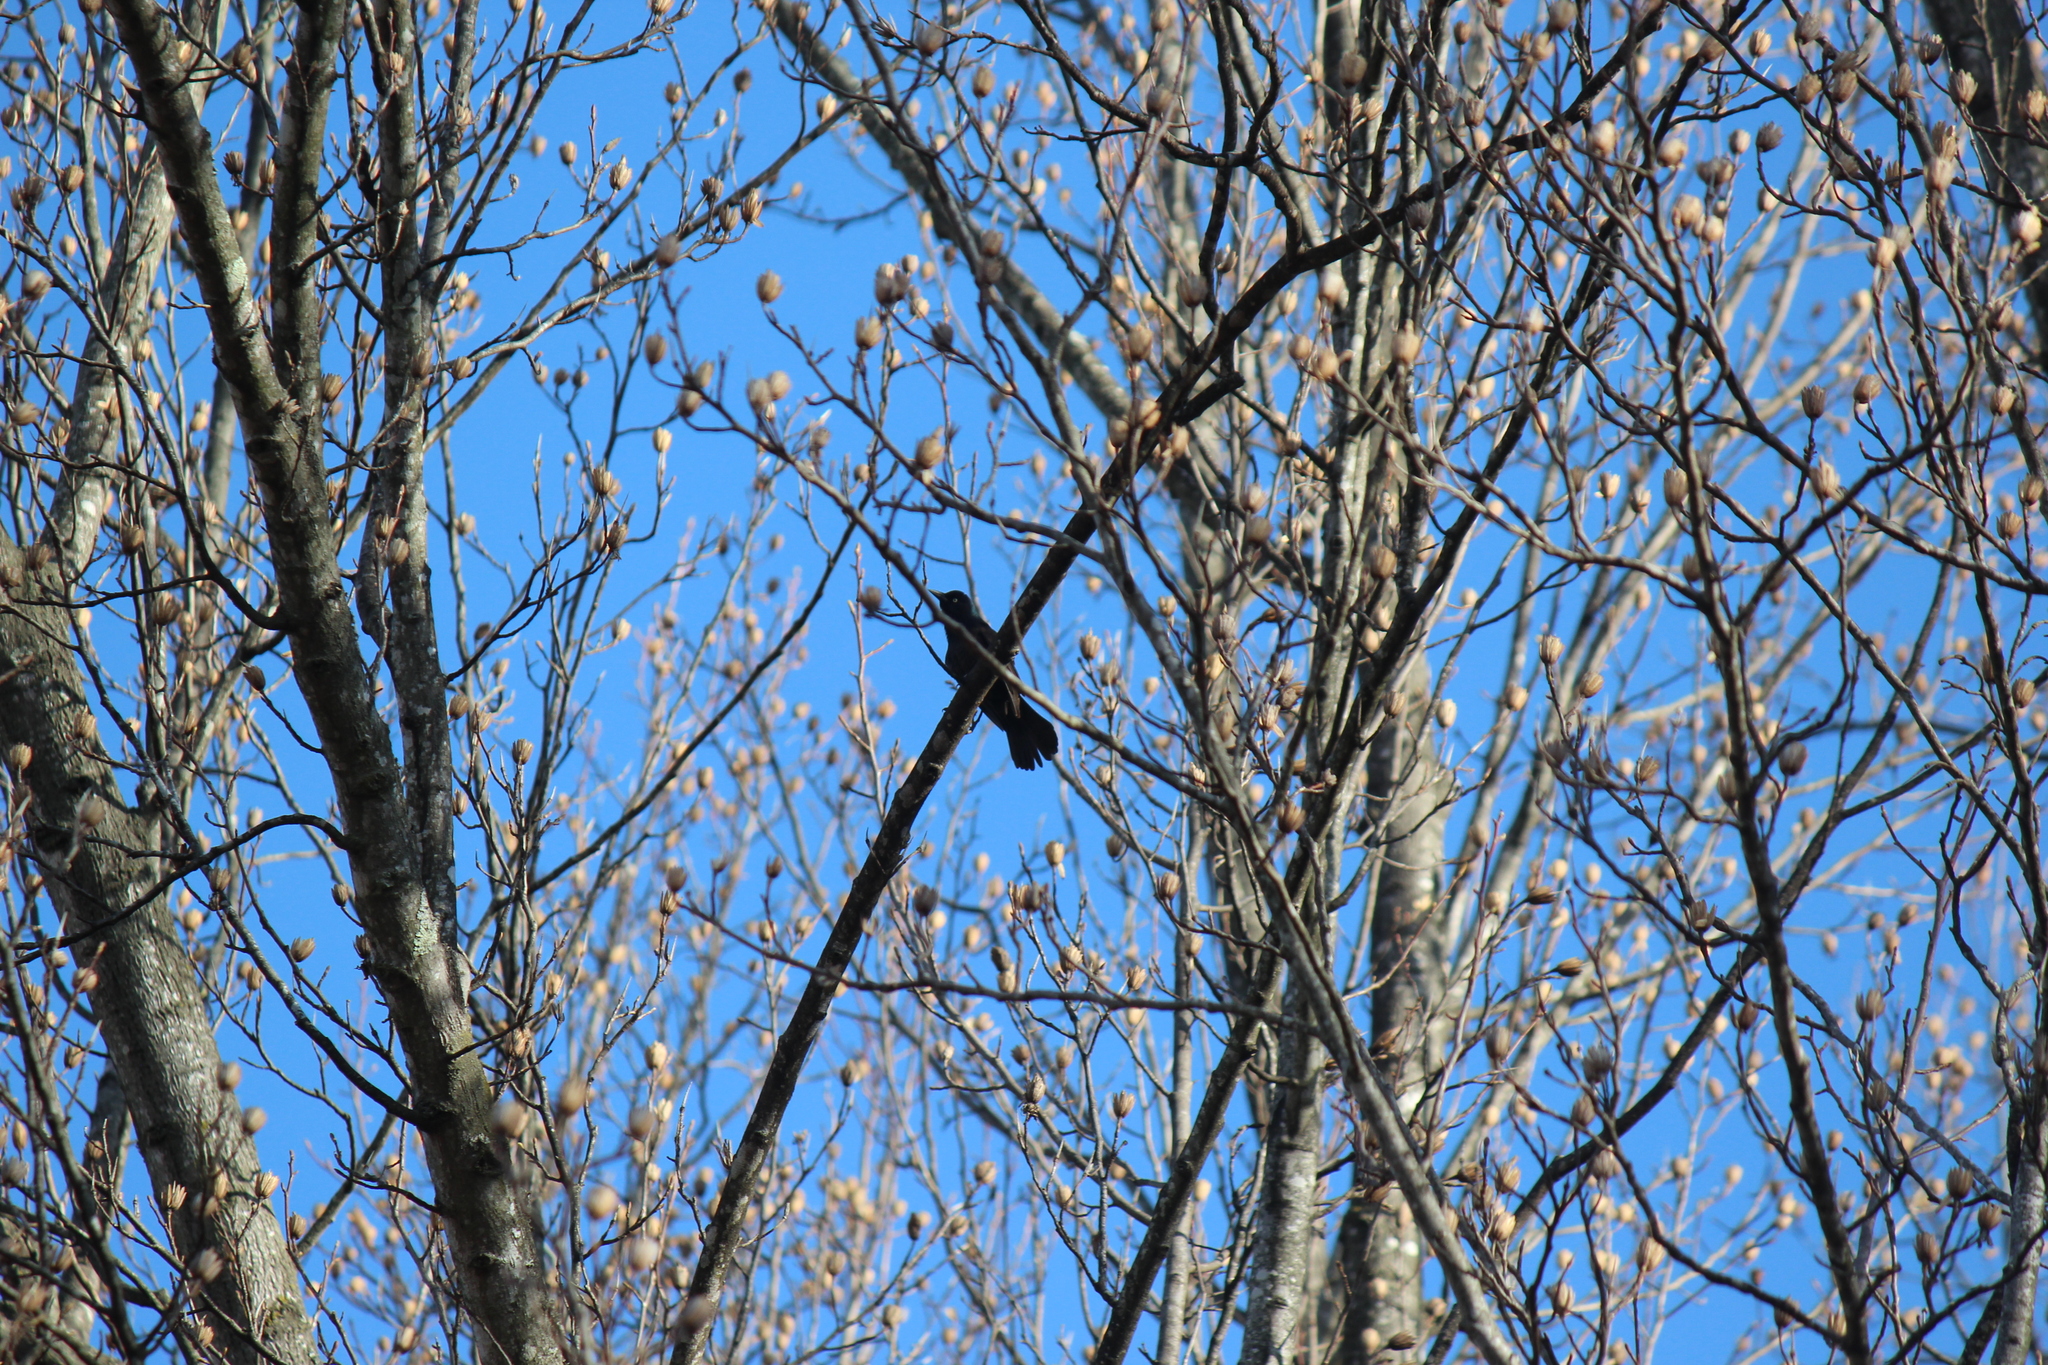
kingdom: Animalia
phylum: Chordata
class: Aves
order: Passeriformes
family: Icteridae
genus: Quiscalus
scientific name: Quiscalus quiscula
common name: Common grackle
